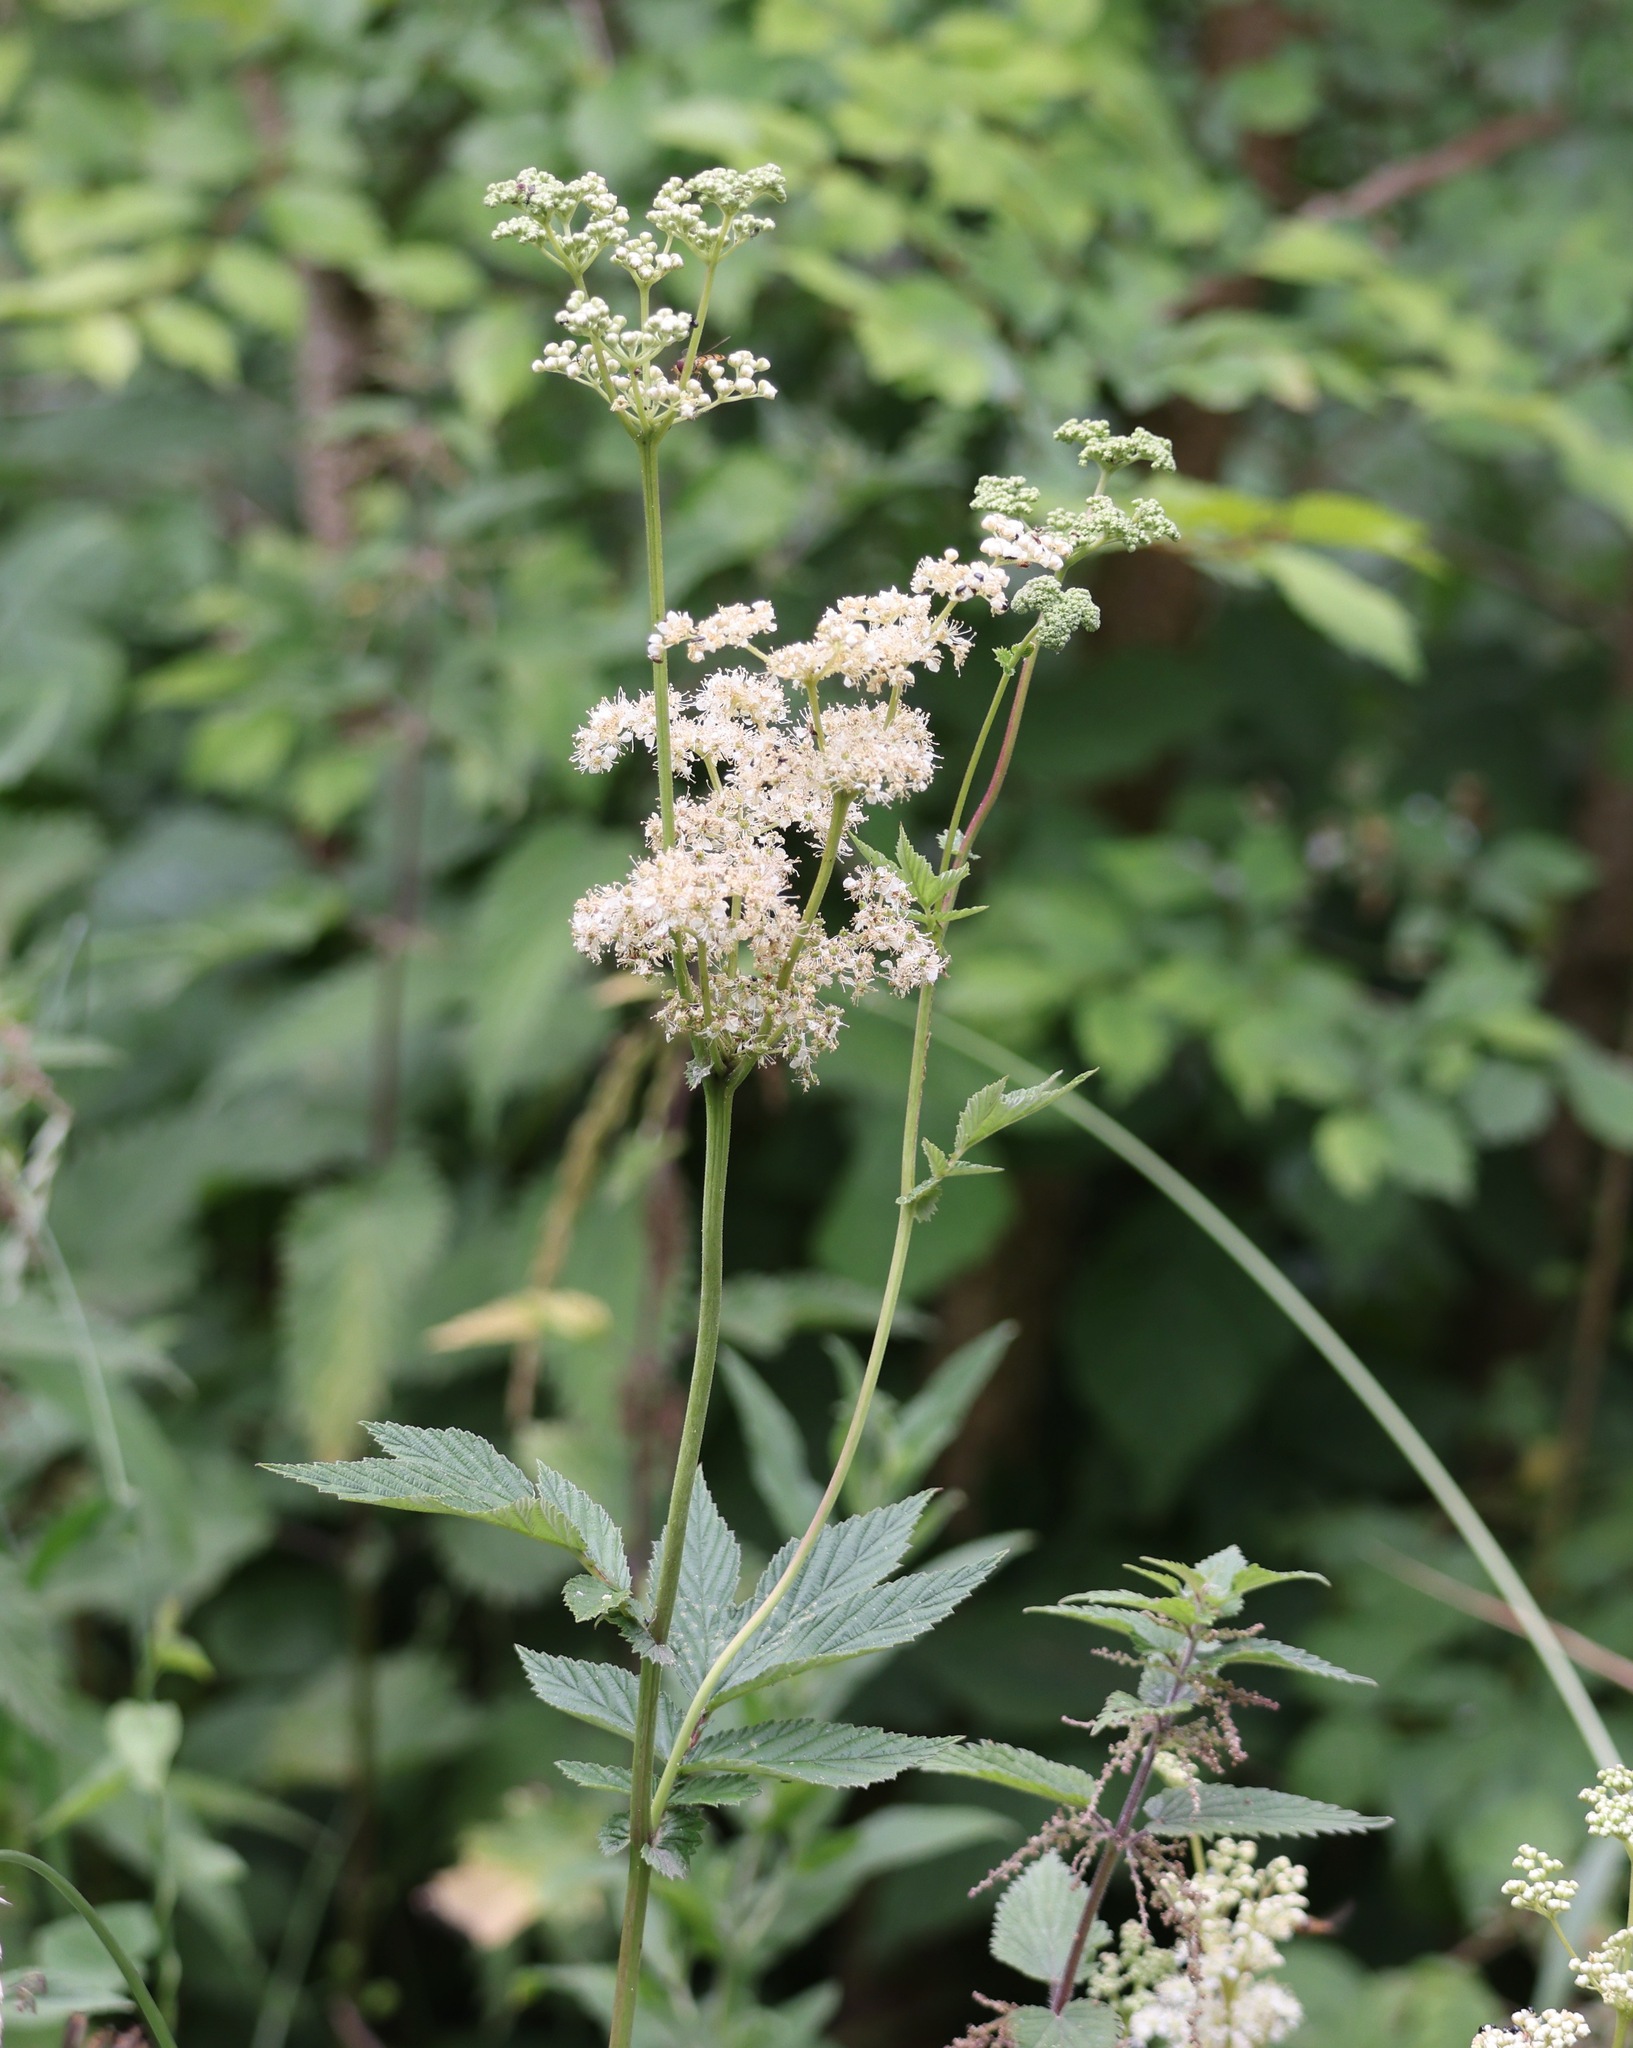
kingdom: Plantae
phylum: Tracheophyta
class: Magnoliopsida
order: Rosales
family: Rosaceae
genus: Filipendula
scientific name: Filipendula ulmaria
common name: Meadowsweet
